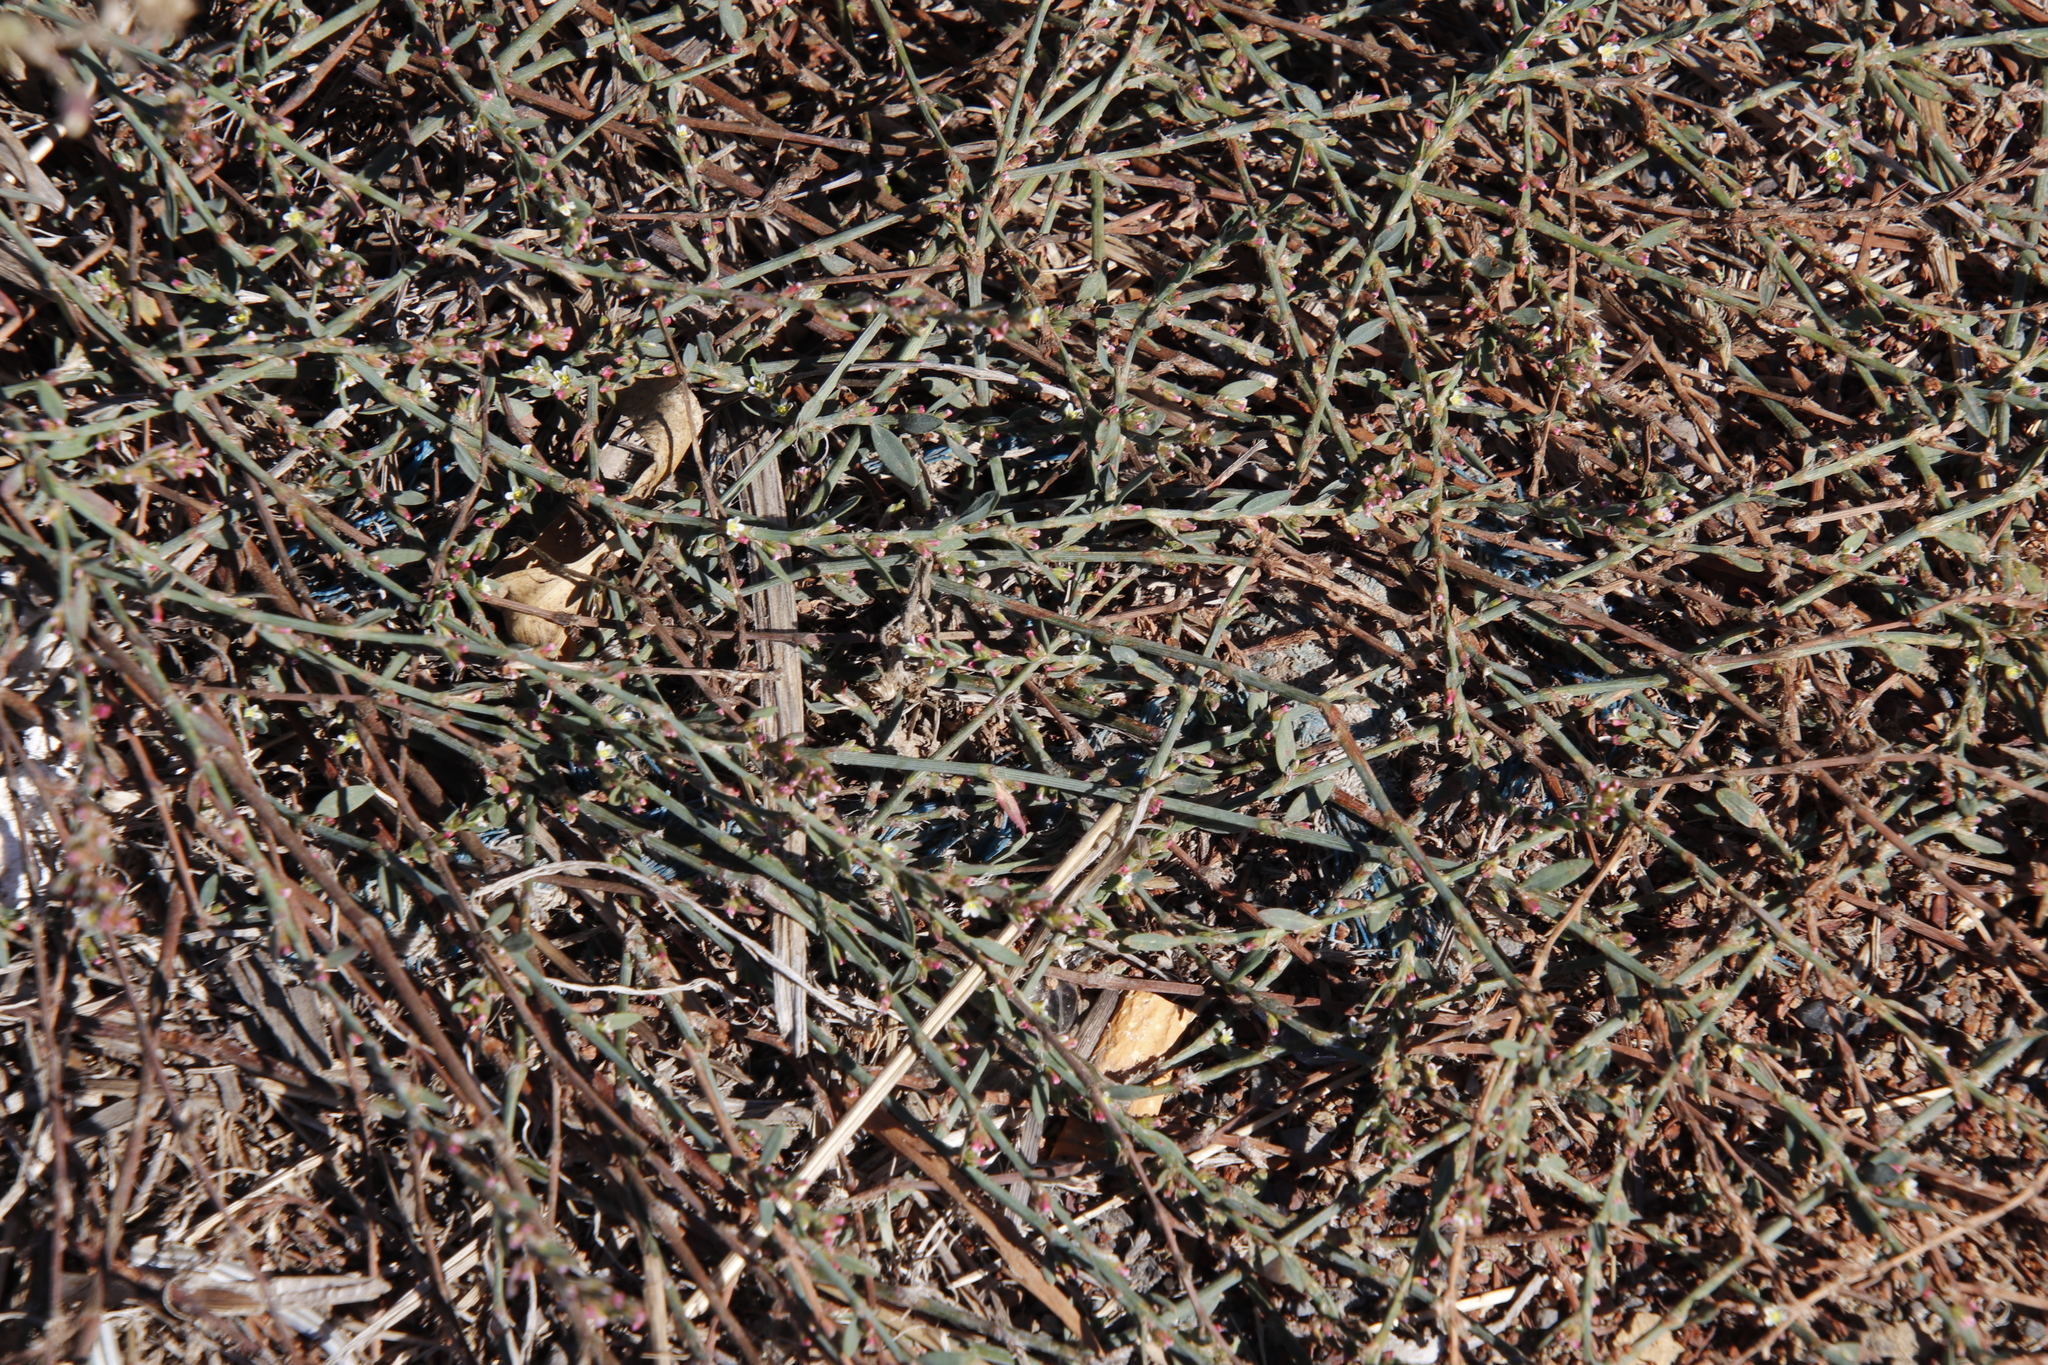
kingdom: Plantae
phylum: Tracheophyta
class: Magnoliopsida
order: Caryophyllales
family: Polygonaceae
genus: Polygonum
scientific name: Polygonum aviculare
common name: Prostrate knotweed
